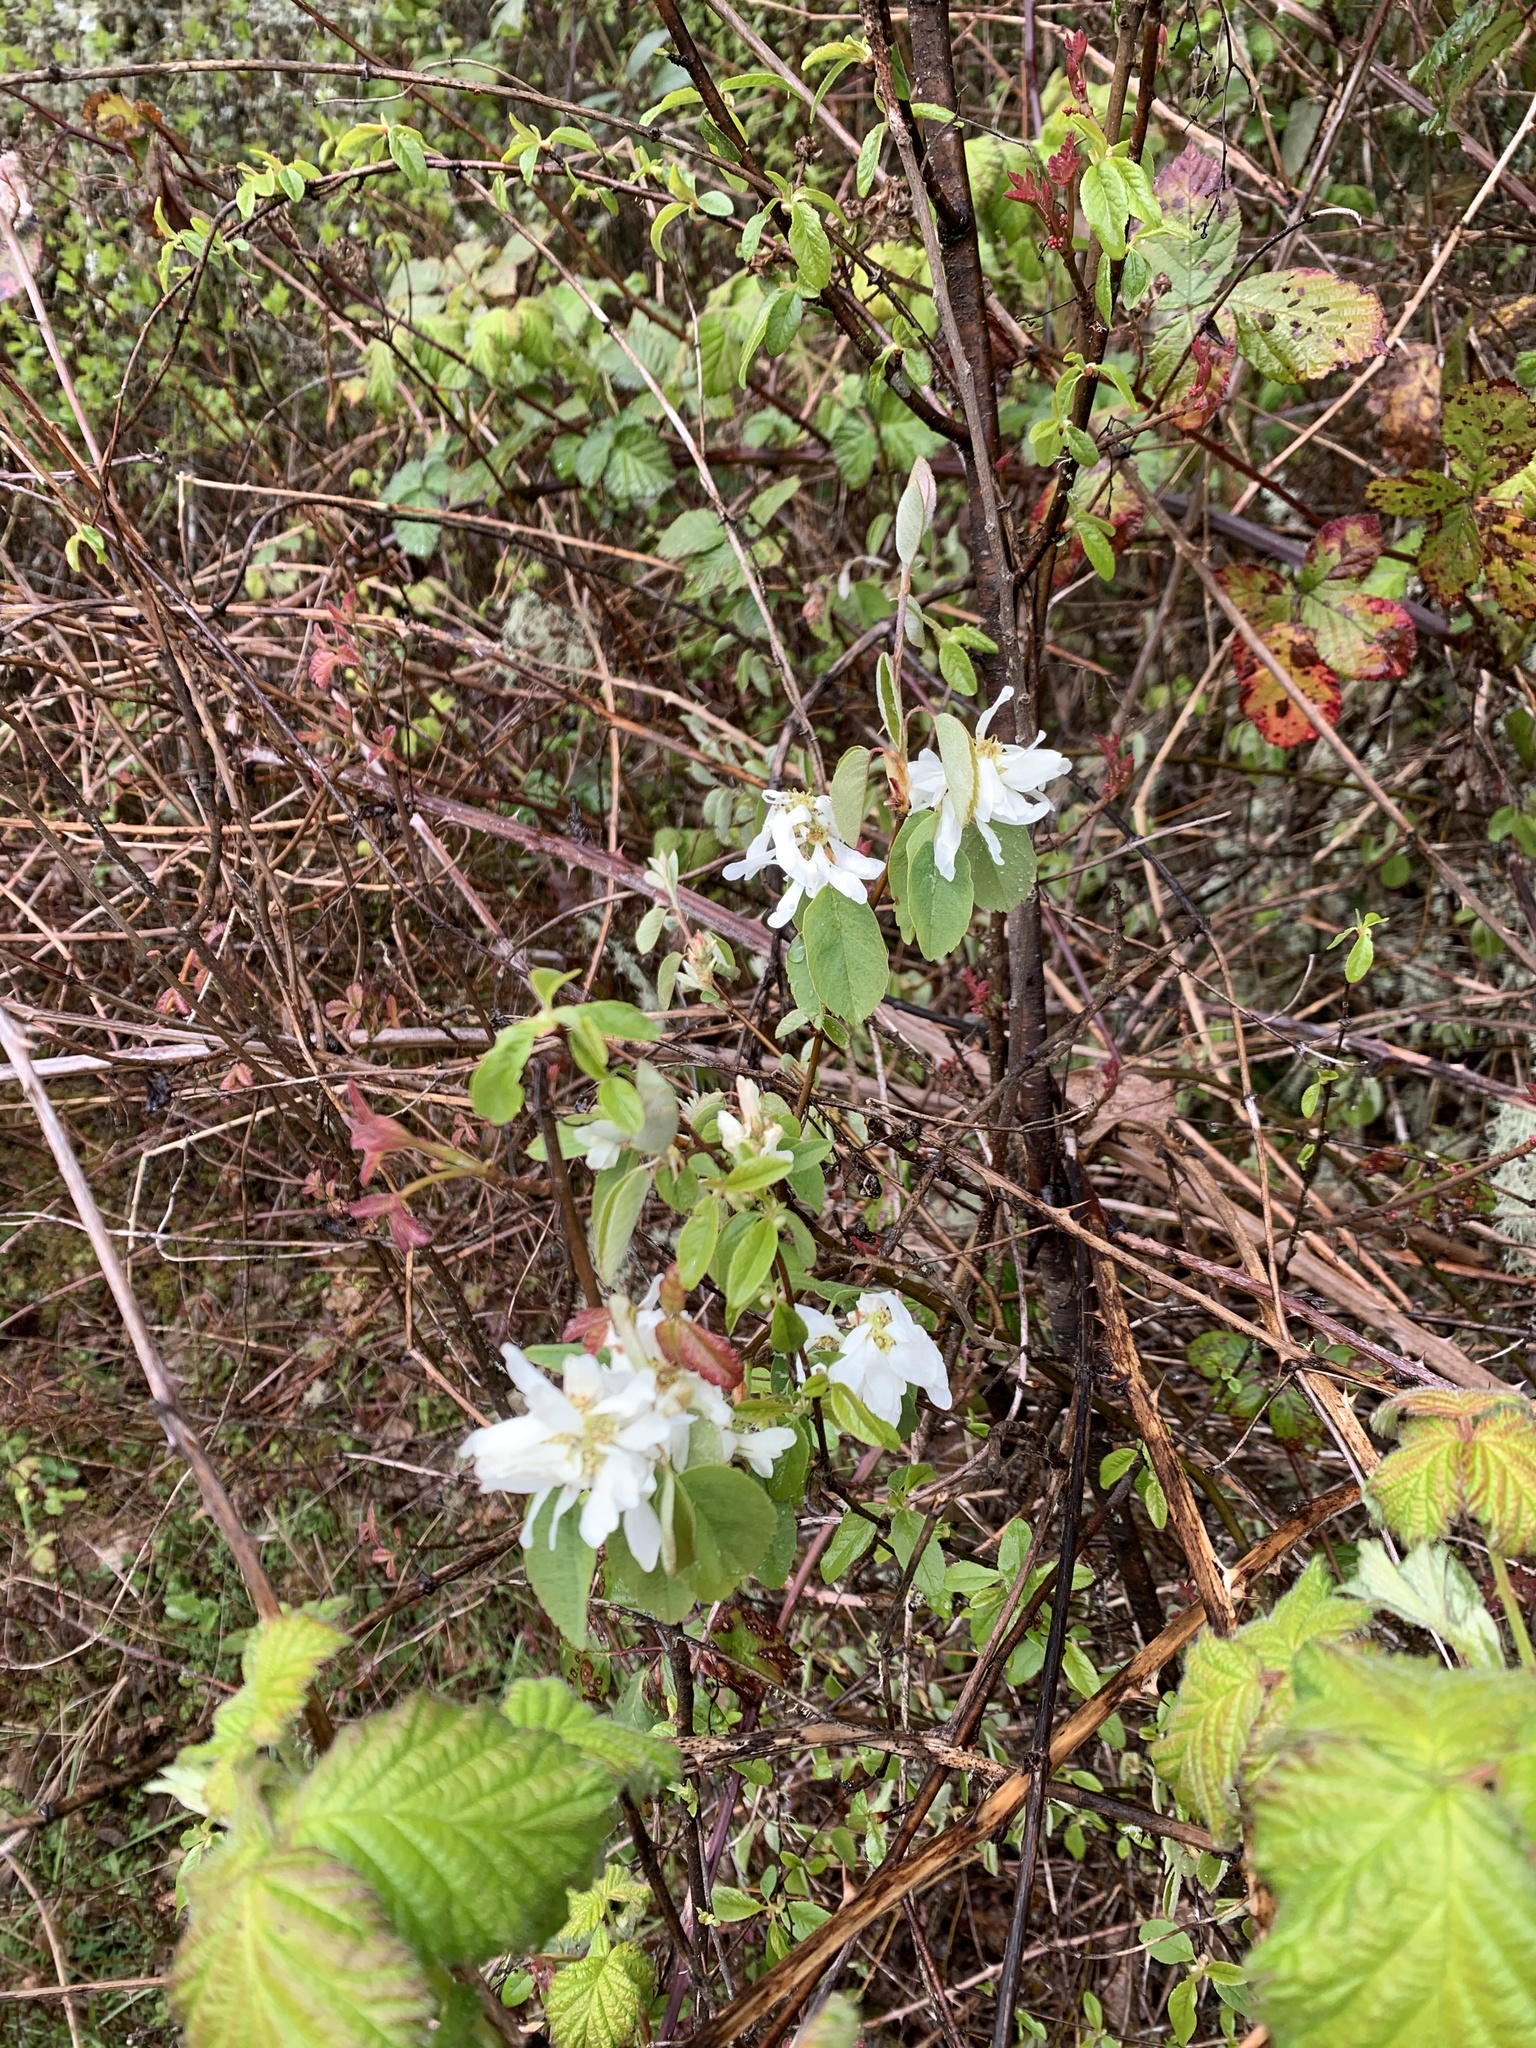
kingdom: Plantae
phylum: Tracheophyta
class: Magnoliopsida
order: Rosales
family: Rosaceae
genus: Amelanchier
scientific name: Amelanchier alnifolia
